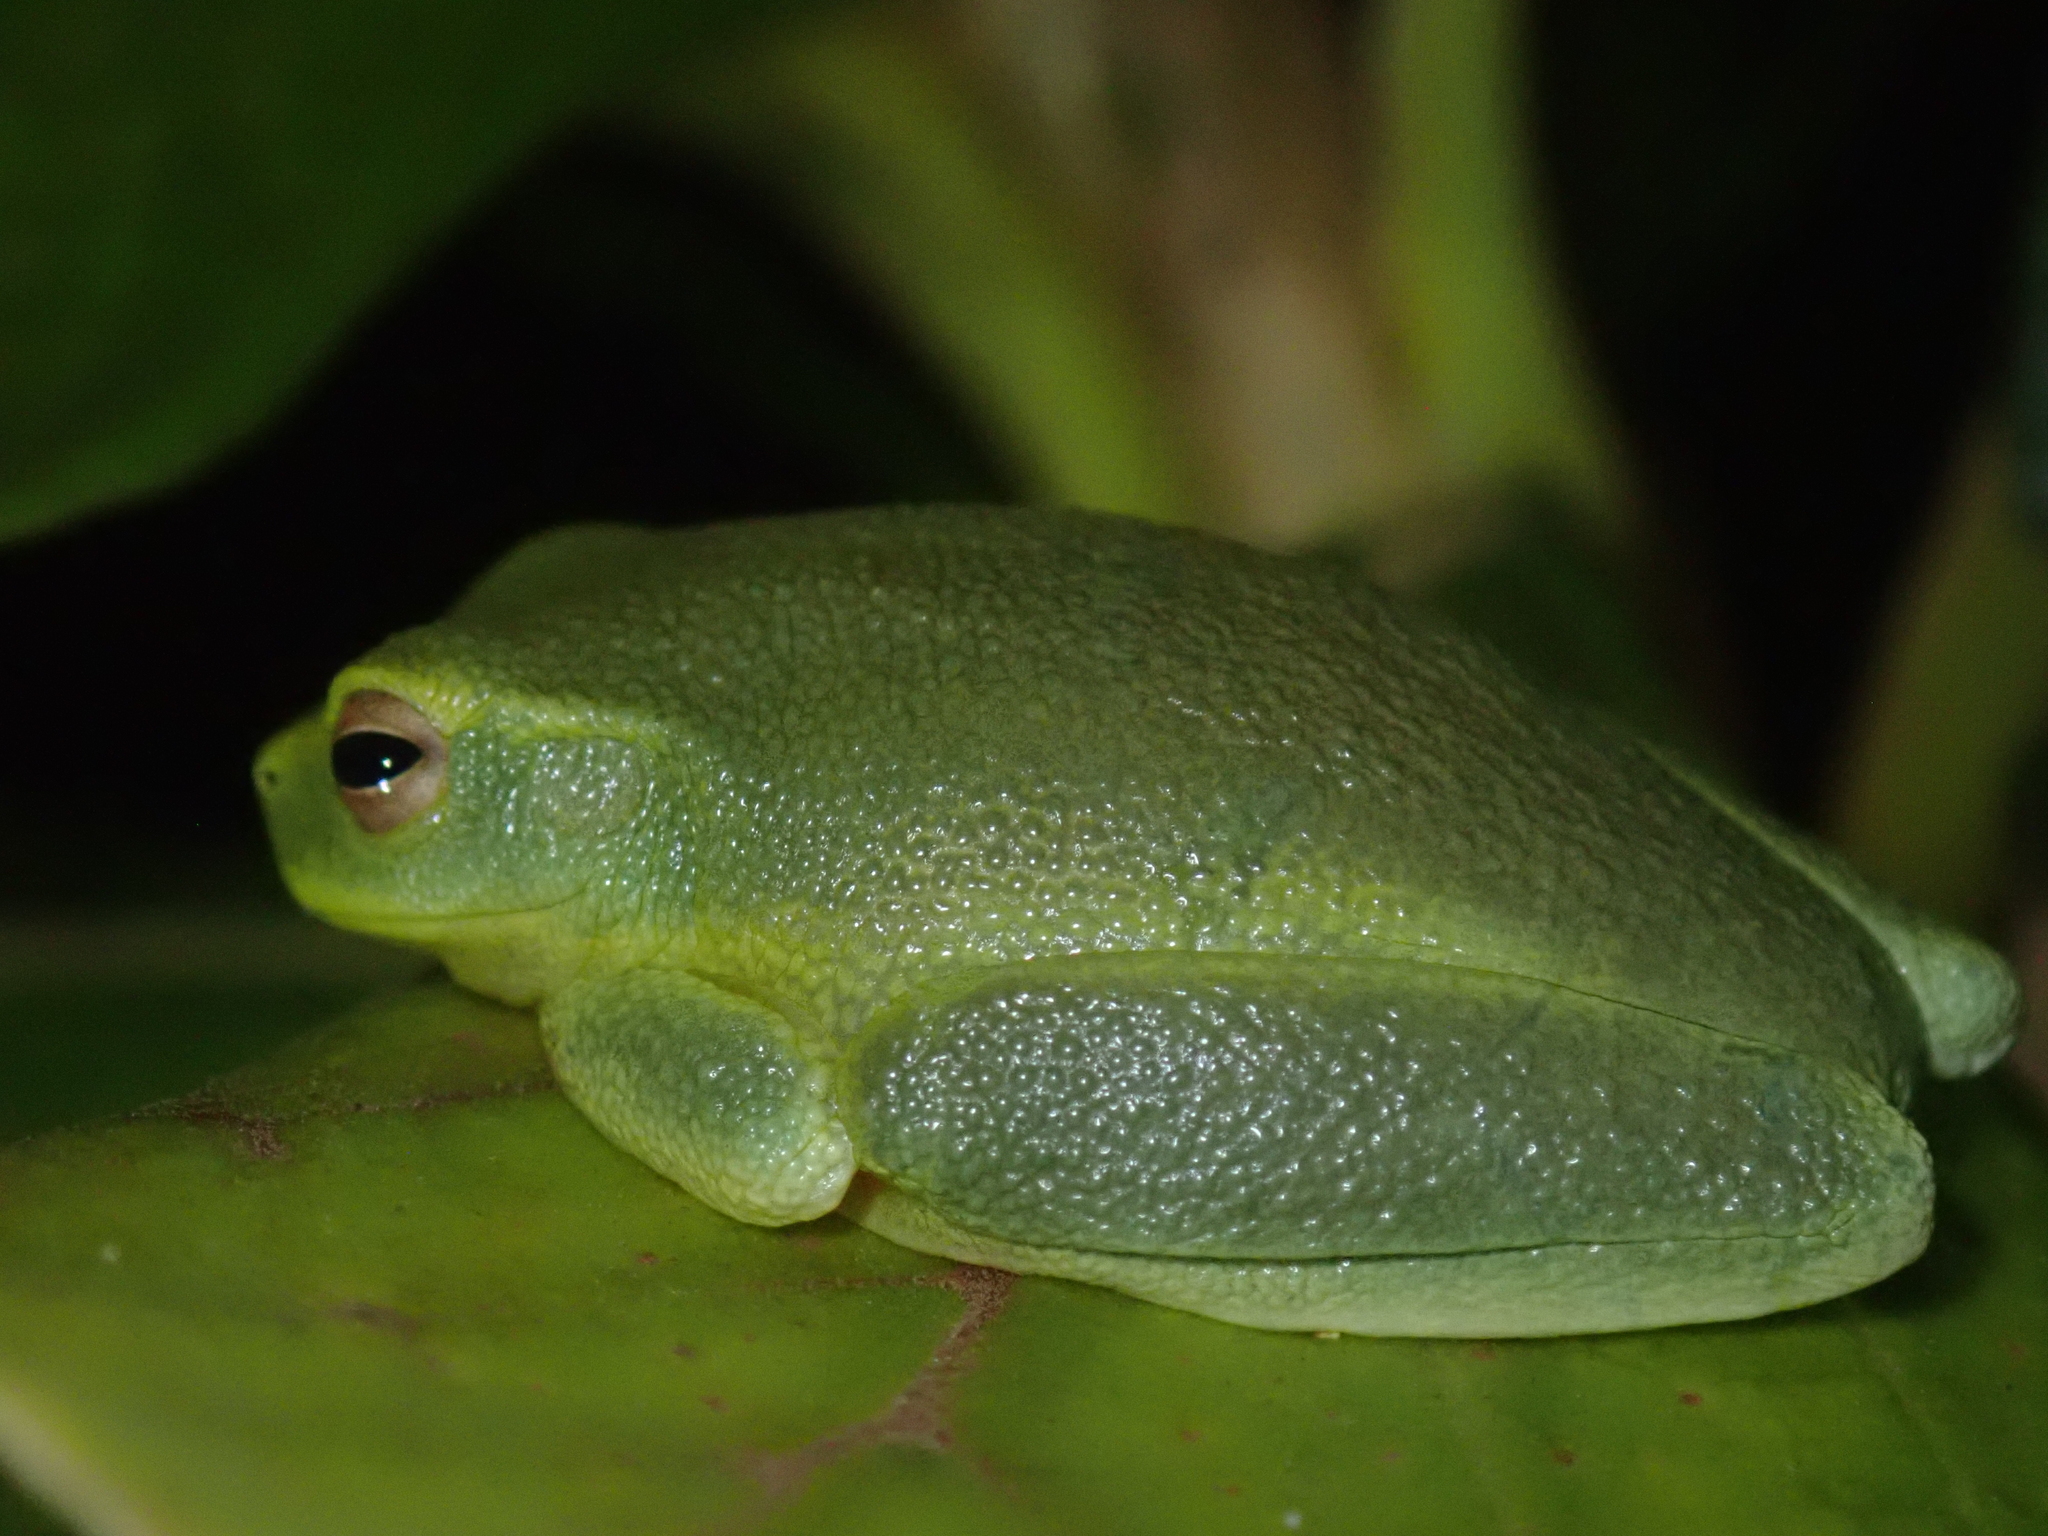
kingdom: Animalia
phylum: Chordata
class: Amphibia
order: Anura
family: Pelodryadidae
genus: Ranoidea
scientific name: Ranoidea bella
